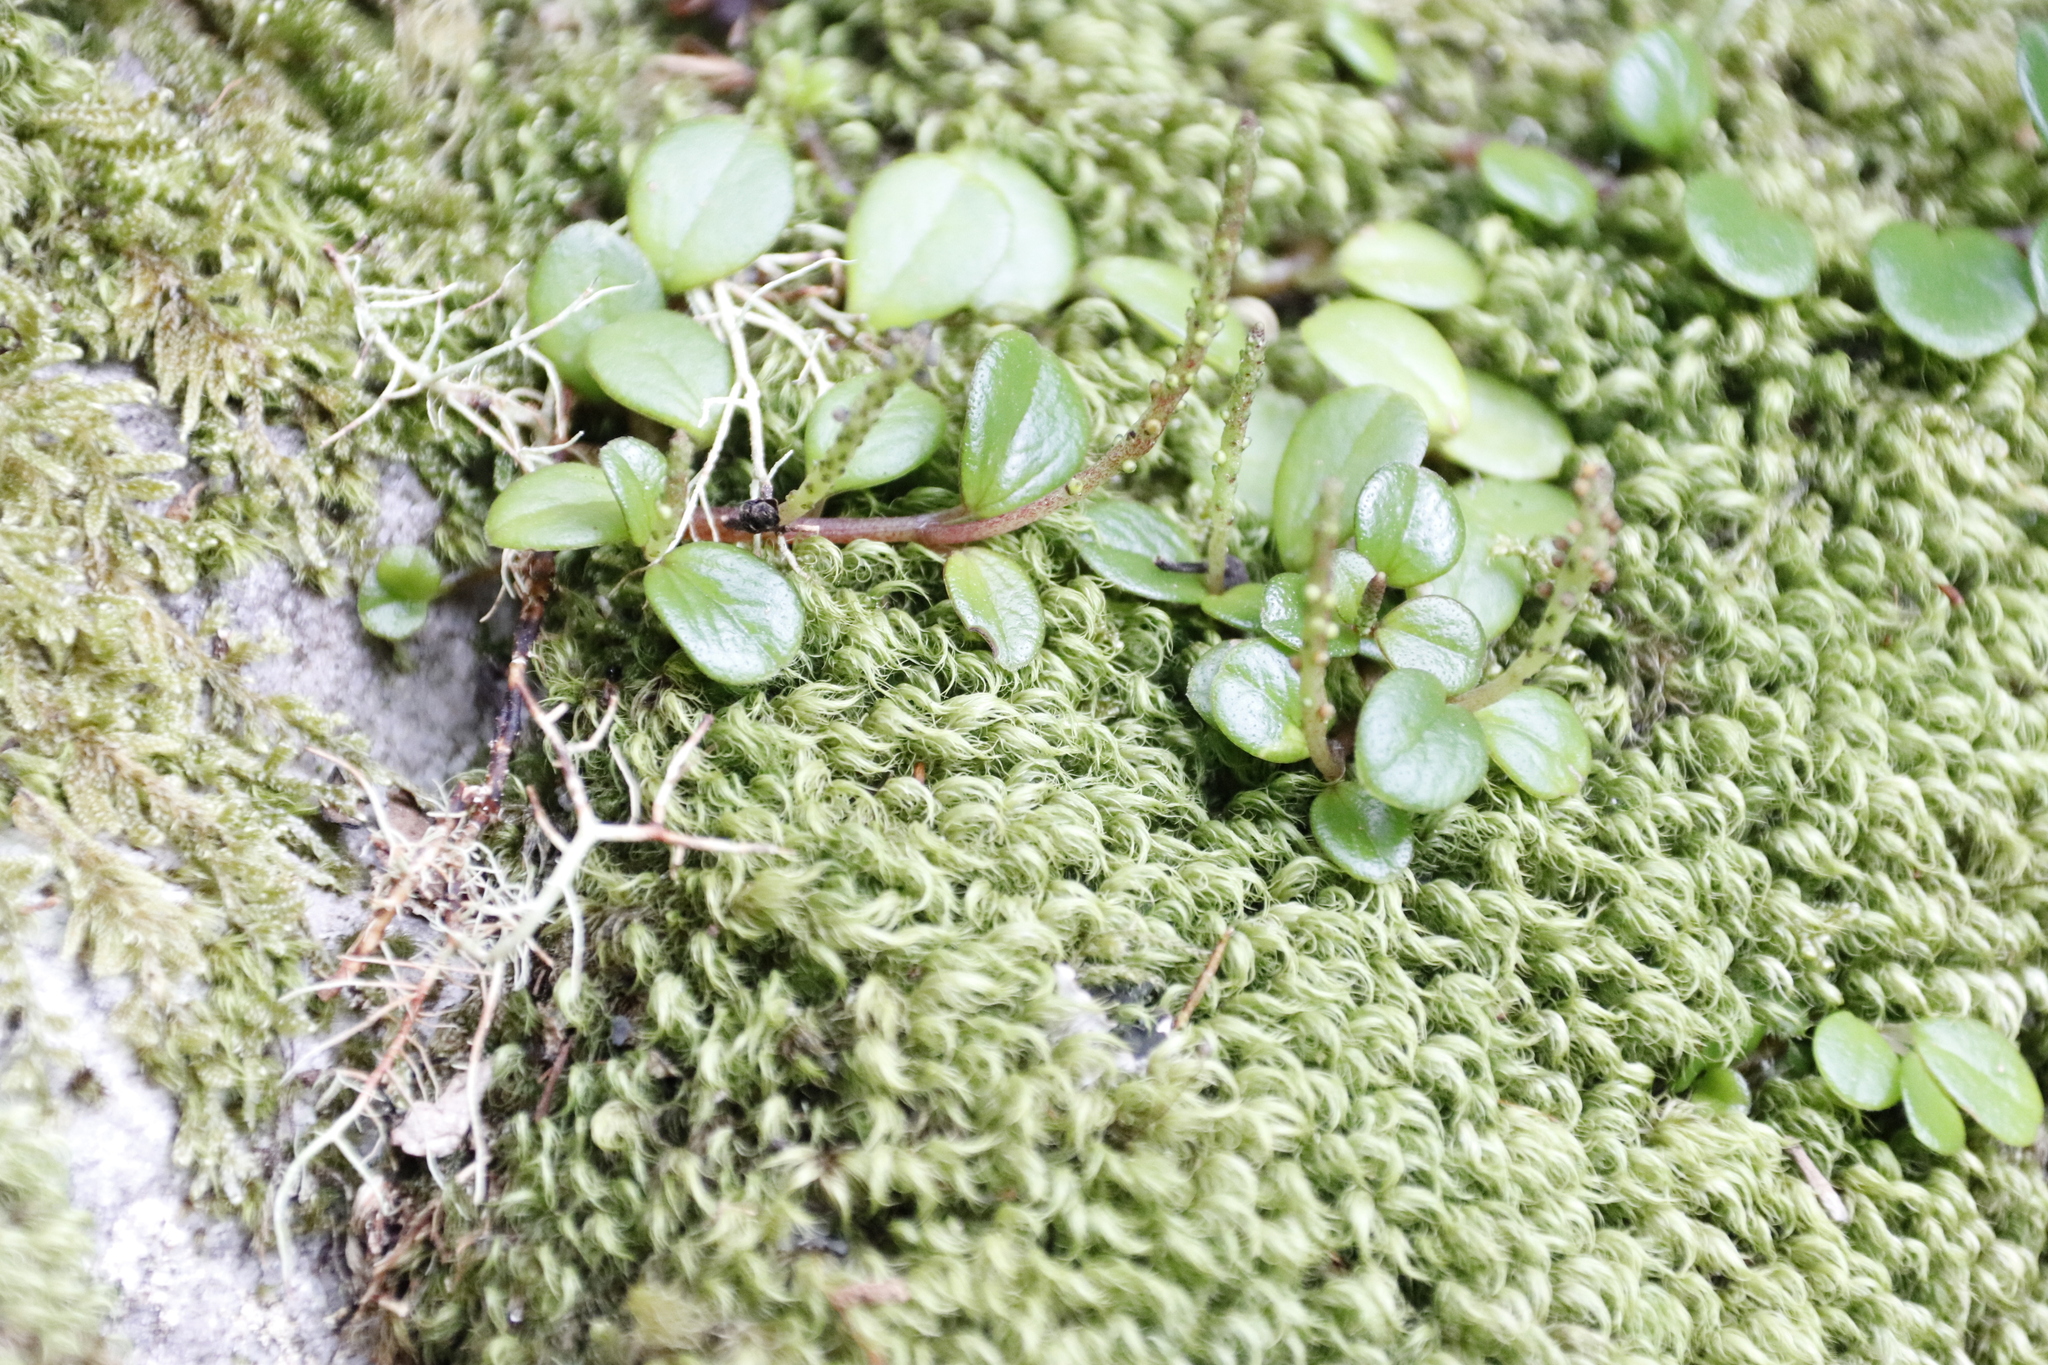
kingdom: Plantae
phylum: Tracheophyta
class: Magnoliopsida
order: Piperales
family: Piperaceae
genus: Peperomia
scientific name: Peperomia retusa
